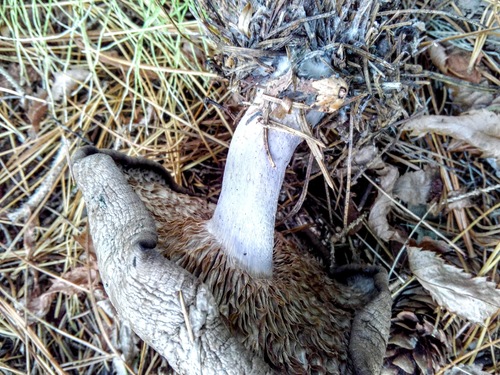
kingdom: Fungi
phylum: Basidiomycota
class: Agaricomycetes
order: Agaricales
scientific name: Agaricales
